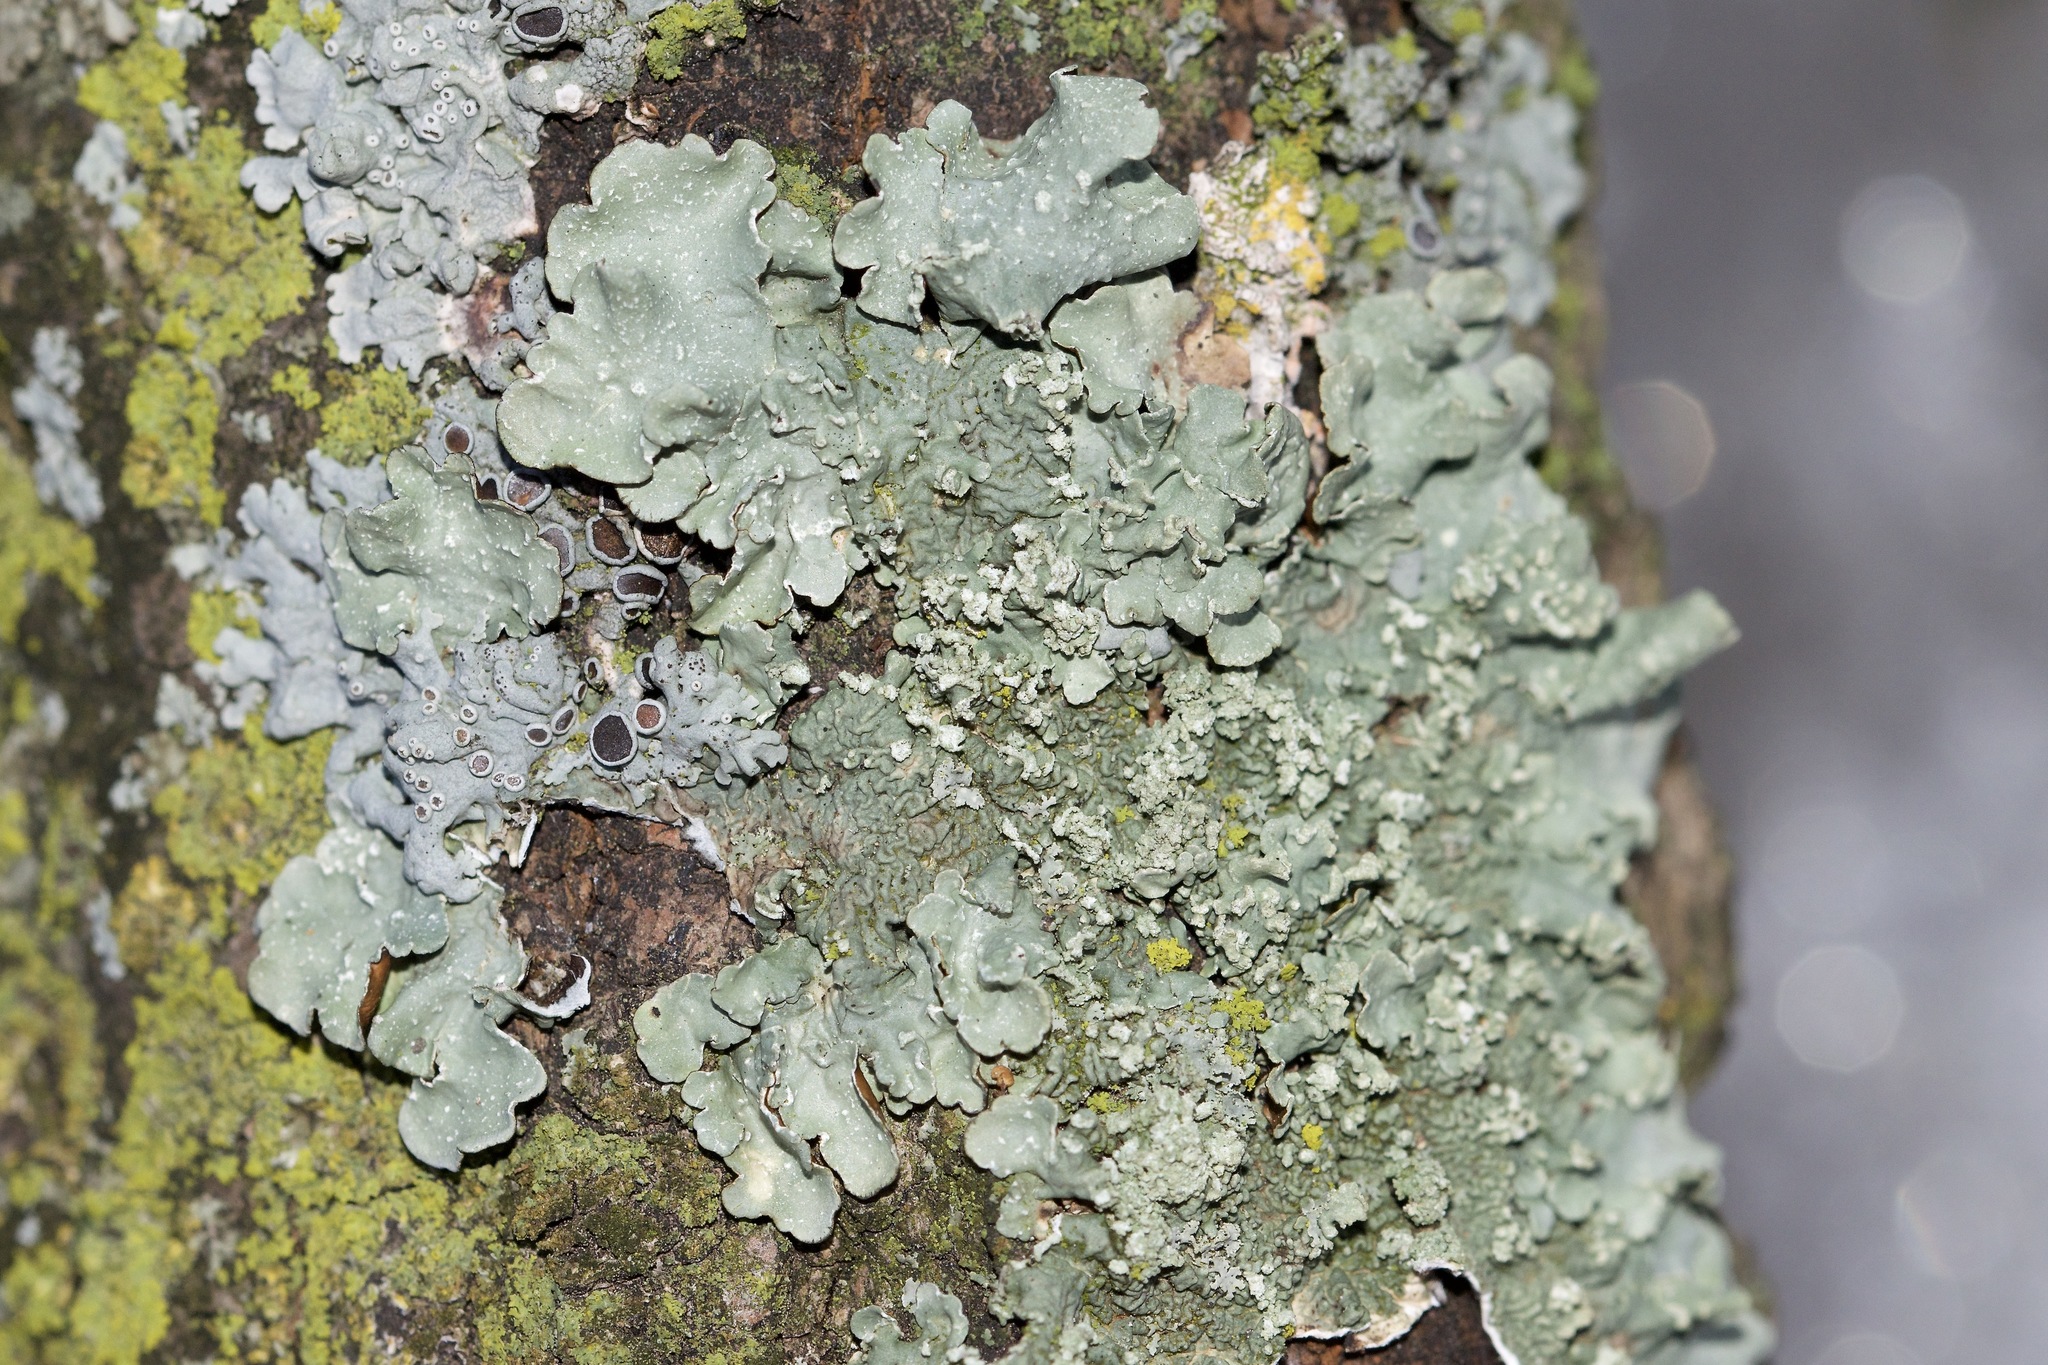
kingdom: Fungi
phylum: Ascomycota
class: Lecanoromycetes
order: Lecanorales
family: Parmeliaceae
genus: Flavopunctelia
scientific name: Flavopunctelia flaventior
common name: Speckled greenshield
